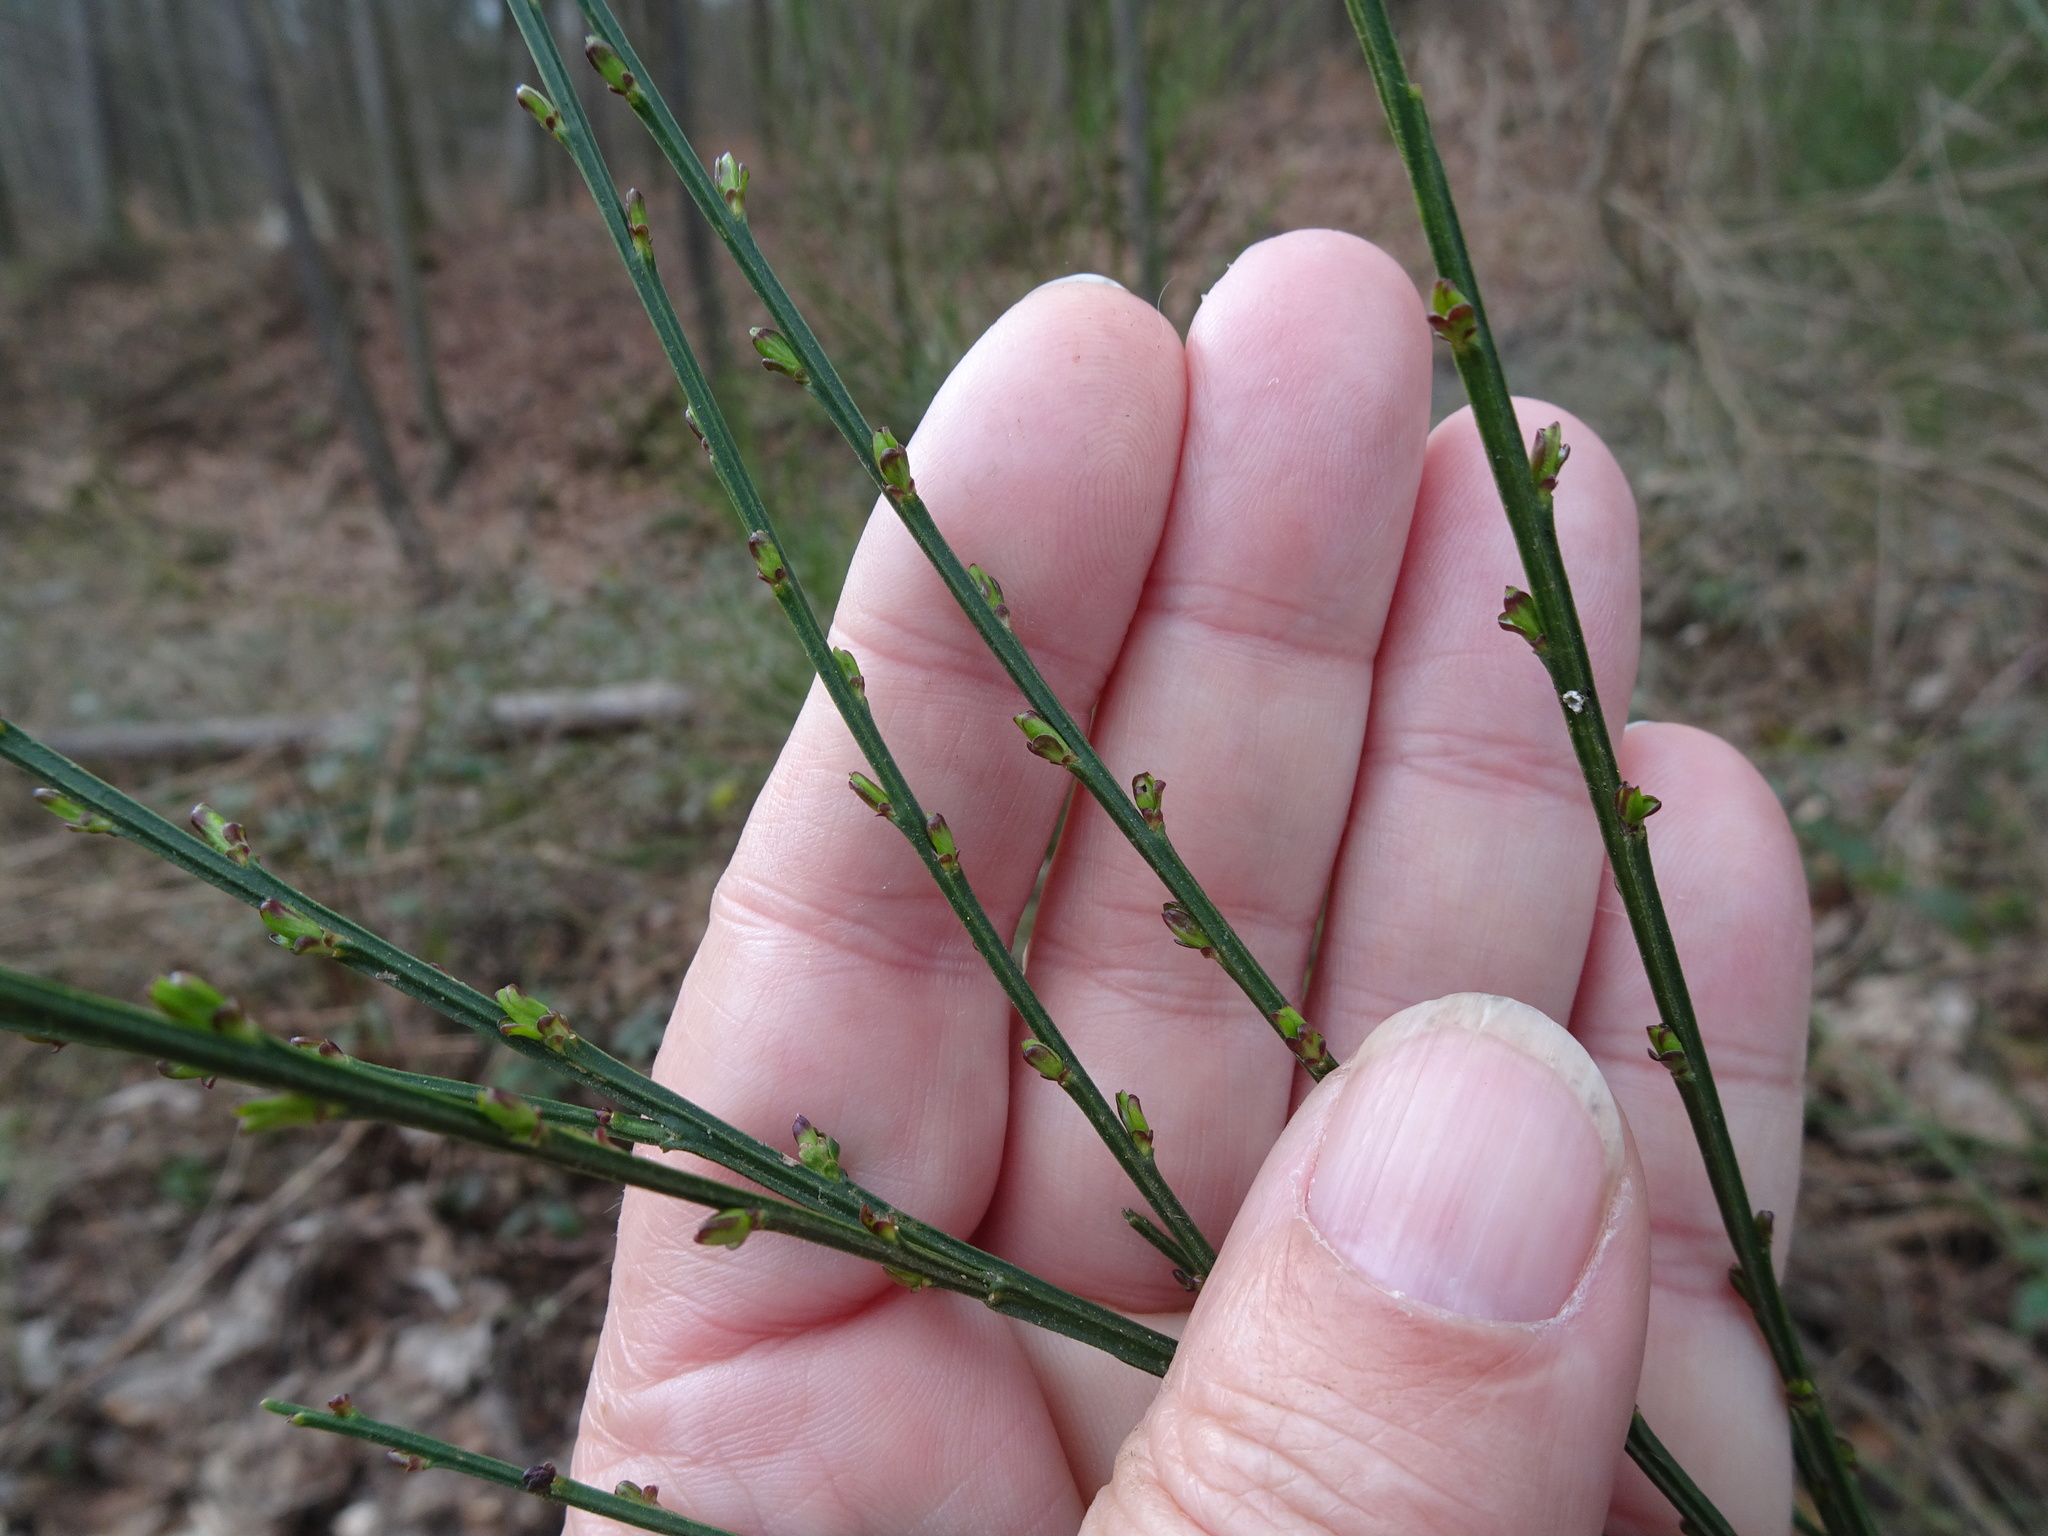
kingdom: Plantae
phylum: Tracheophyta
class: Magnoliopsida
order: Fabales
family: Fabaceae
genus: Cytisus
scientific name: Cytisus scoparius
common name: Scotch broom
